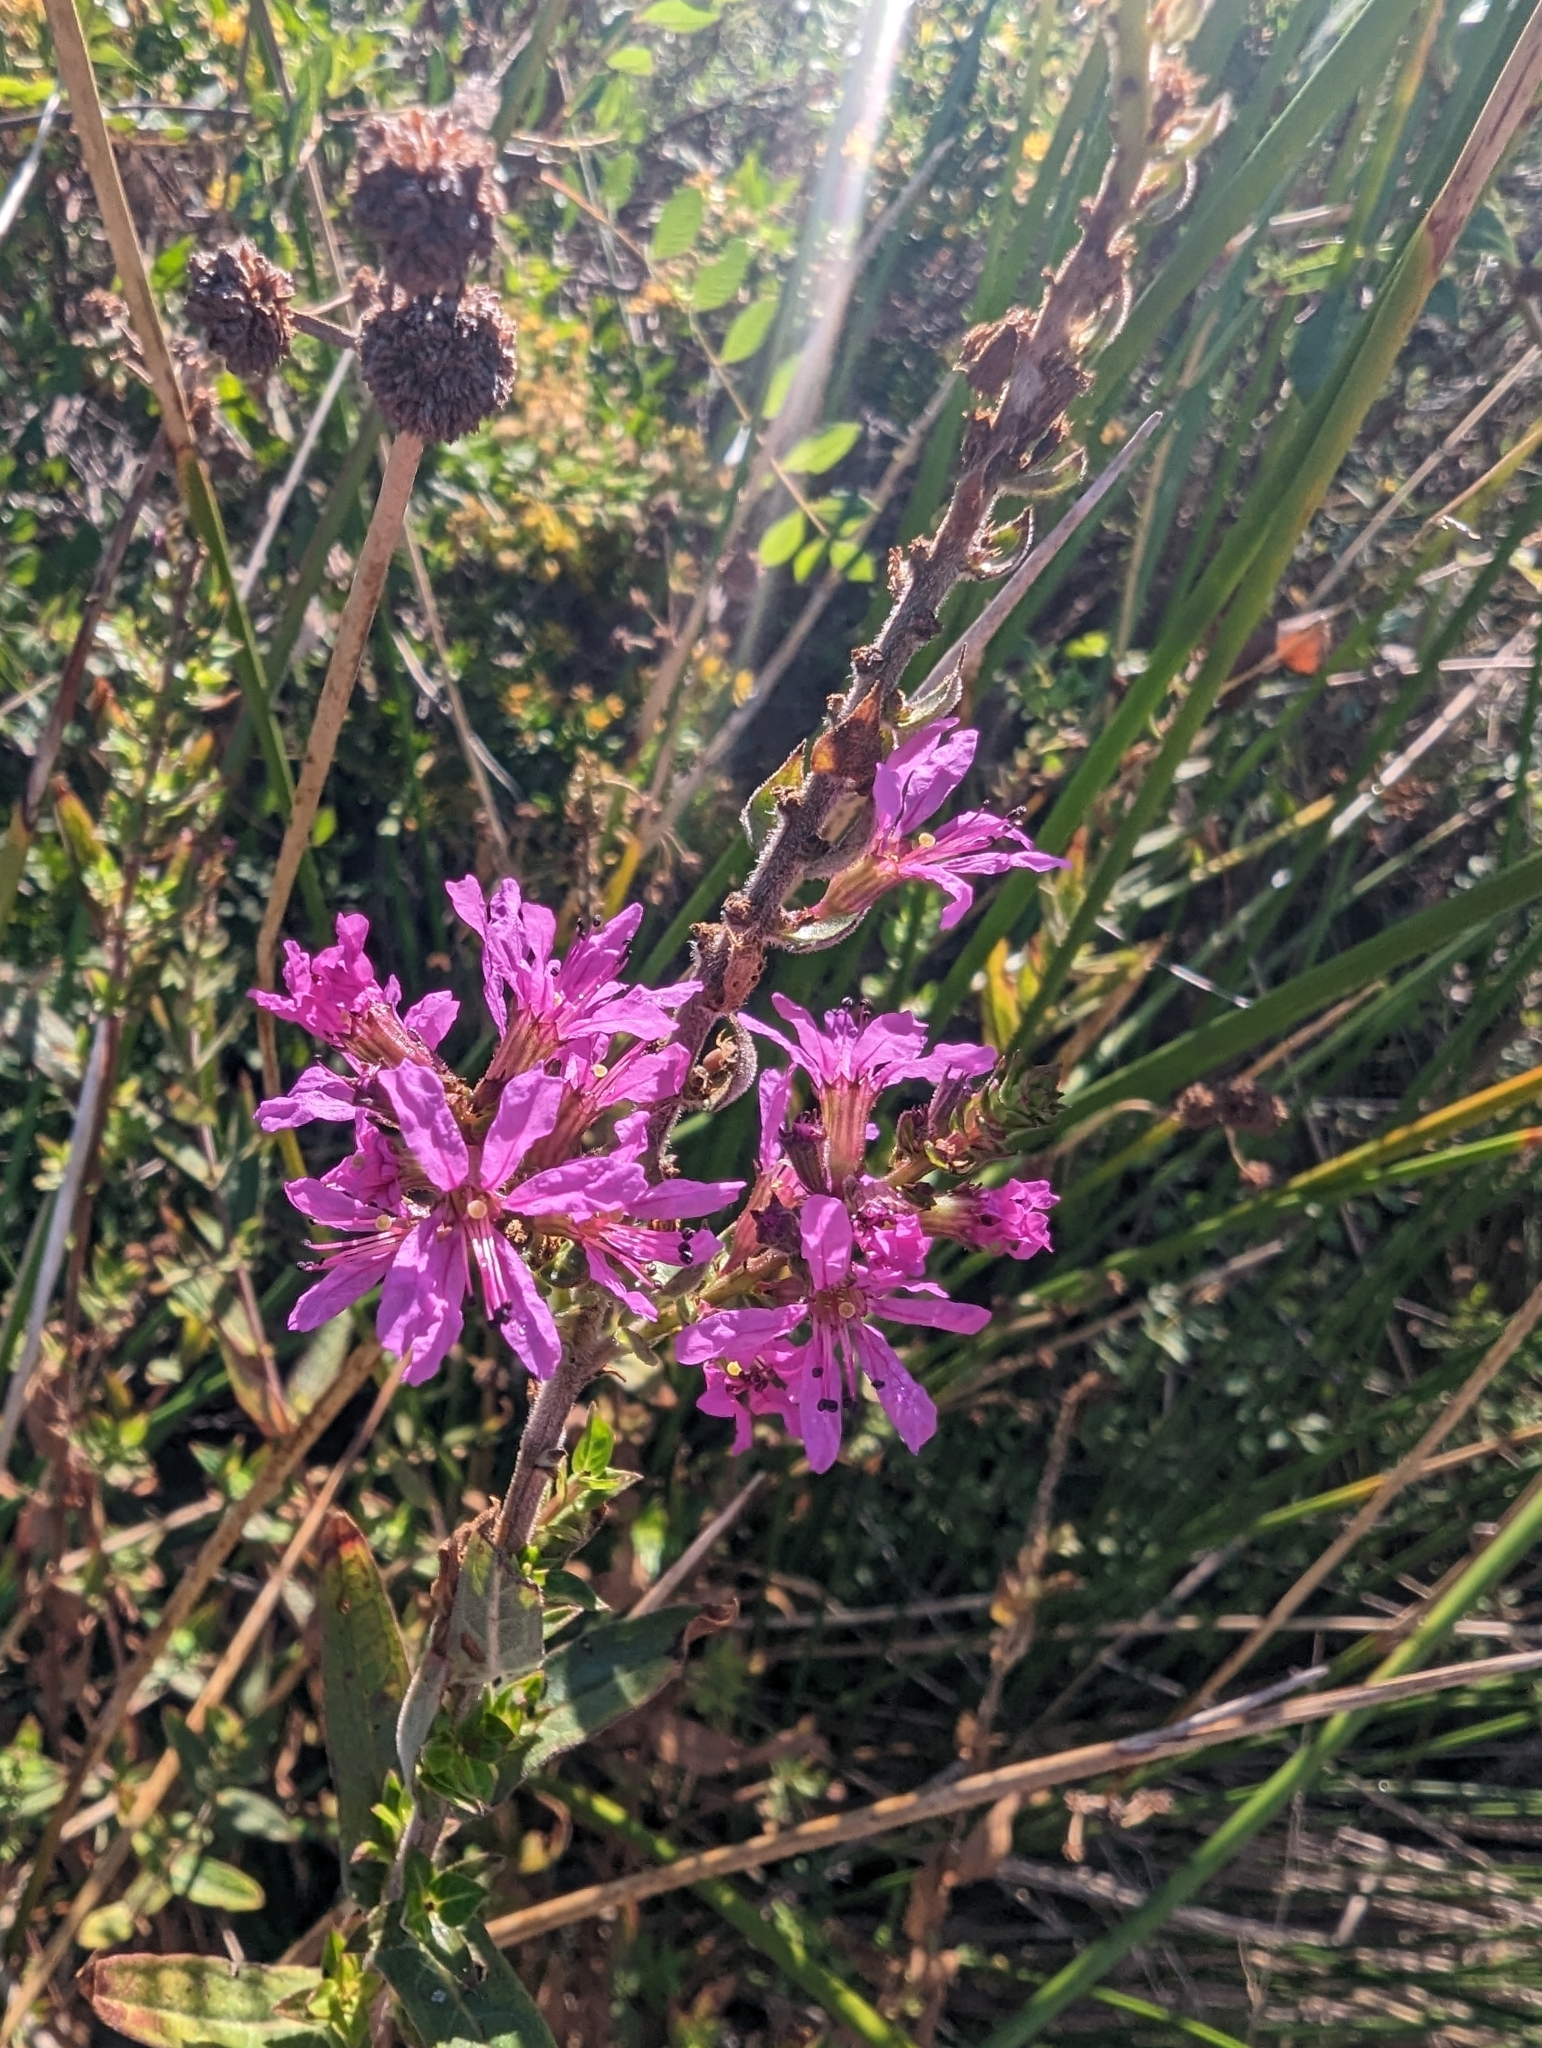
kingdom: Plantae
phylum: Tracheophyta
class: Magnoliopsida
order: Myrtales
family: Lythraceae
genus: Lythrum
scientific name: Lythrum salicaria
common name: Purple loosestrife
